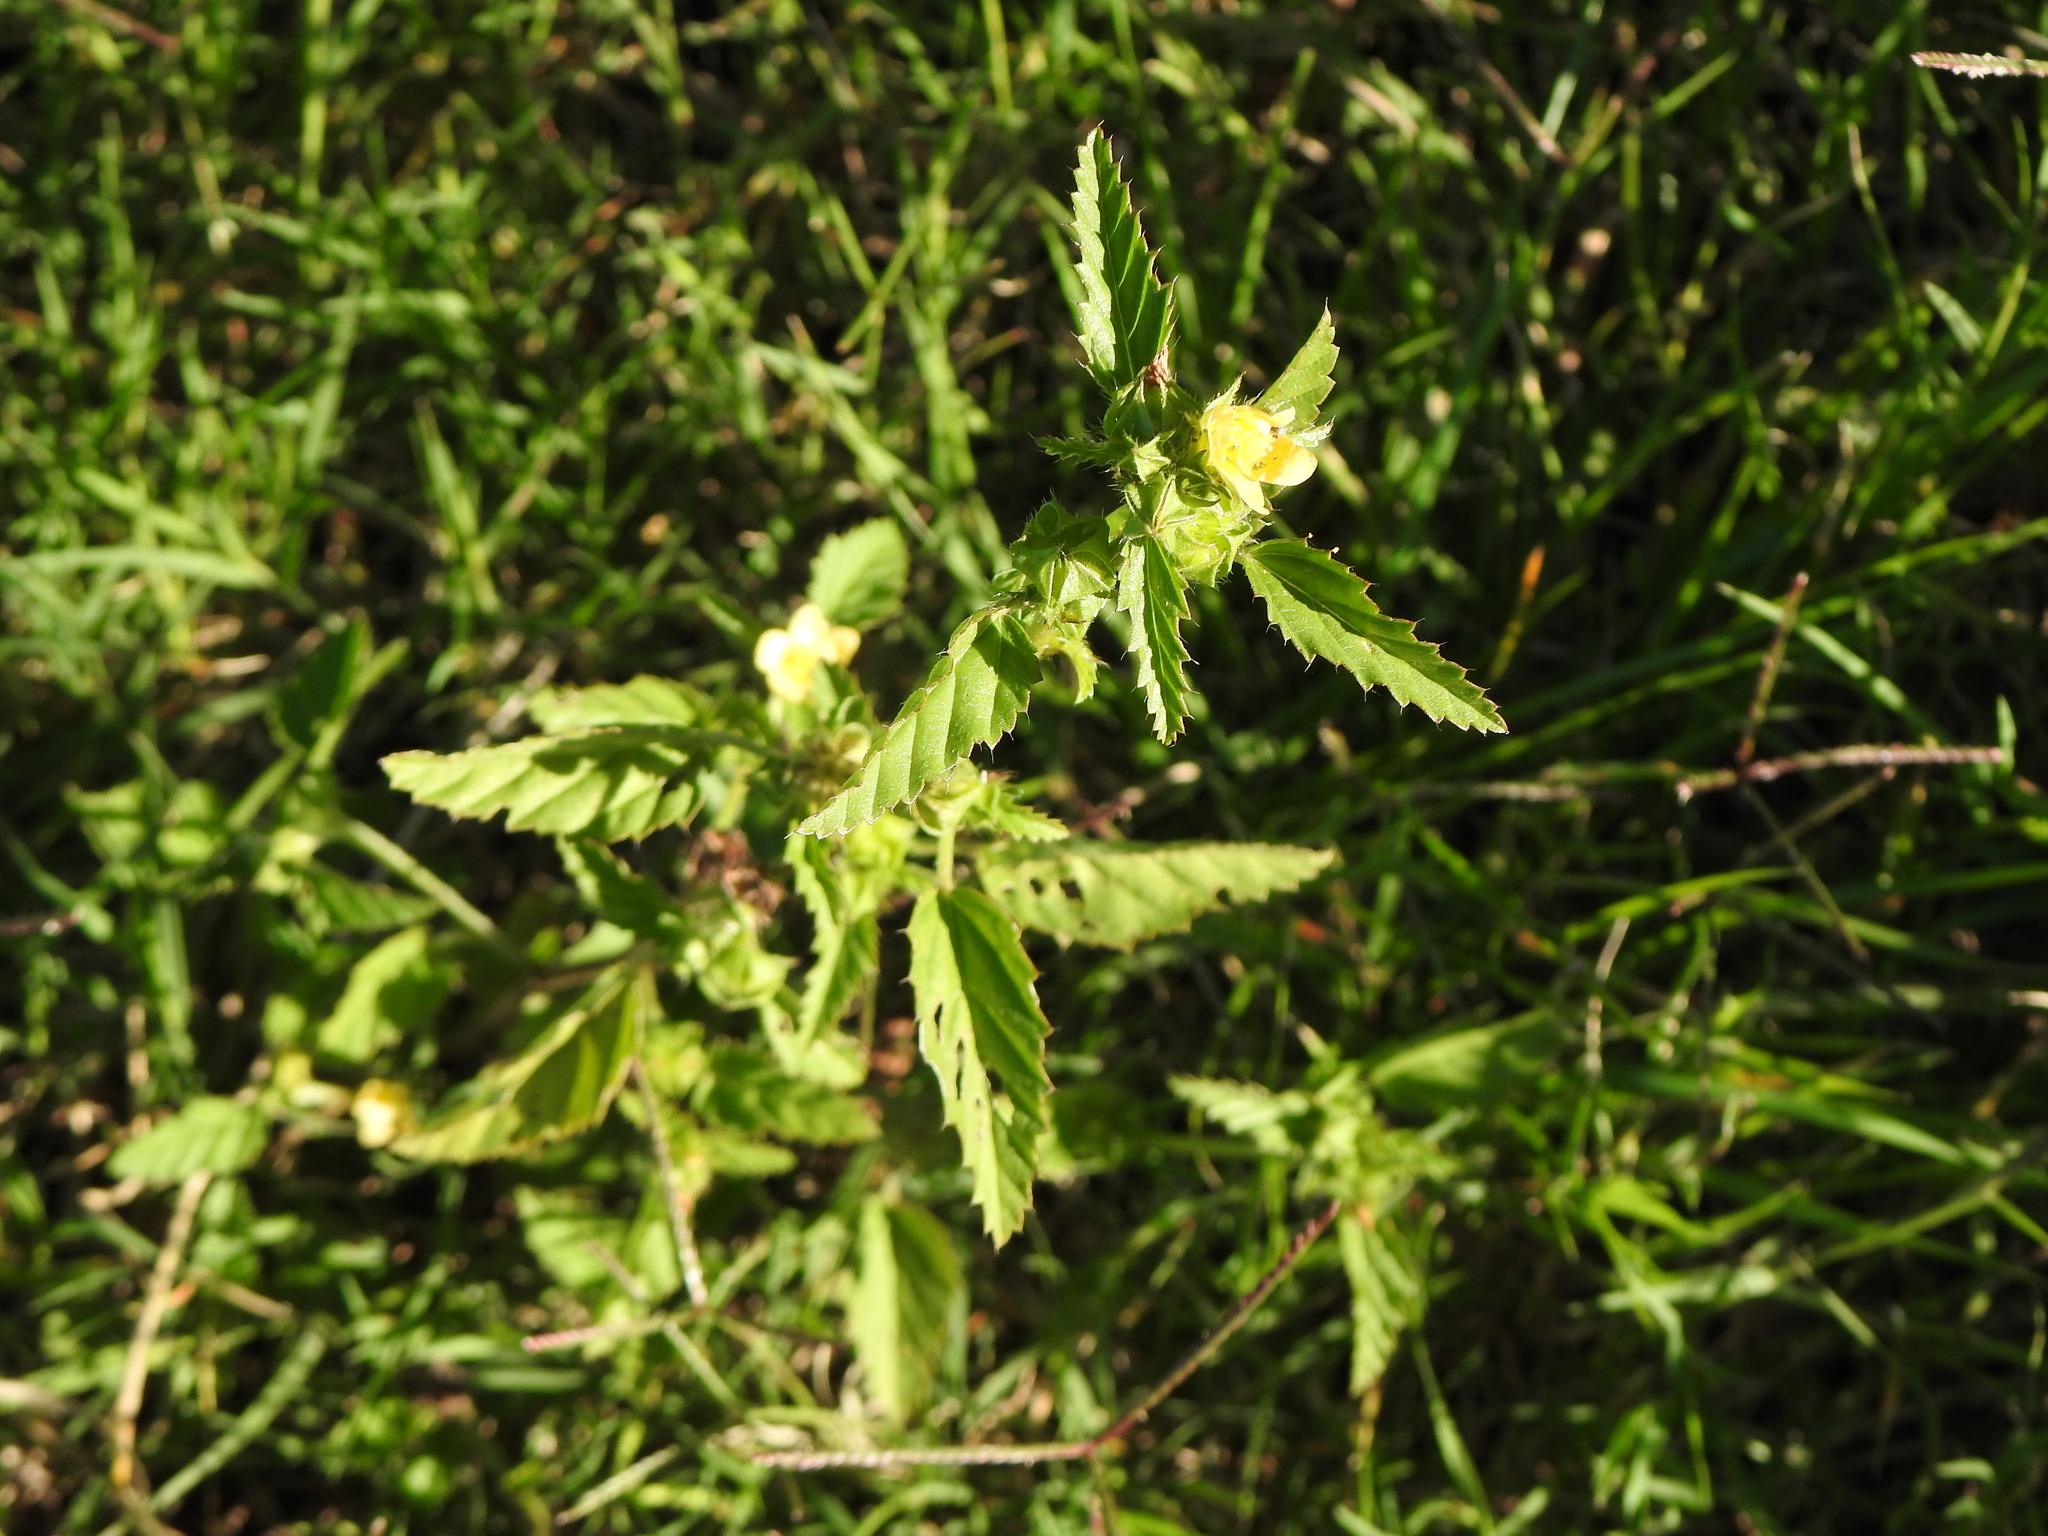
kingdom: Plantae
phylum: Tracheophyta
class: Magnoliopsida
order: Malvales
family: Malvaceae
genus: Malvastrum
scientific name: Malvastrum coromandelianum
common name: Threelobe false mallow
